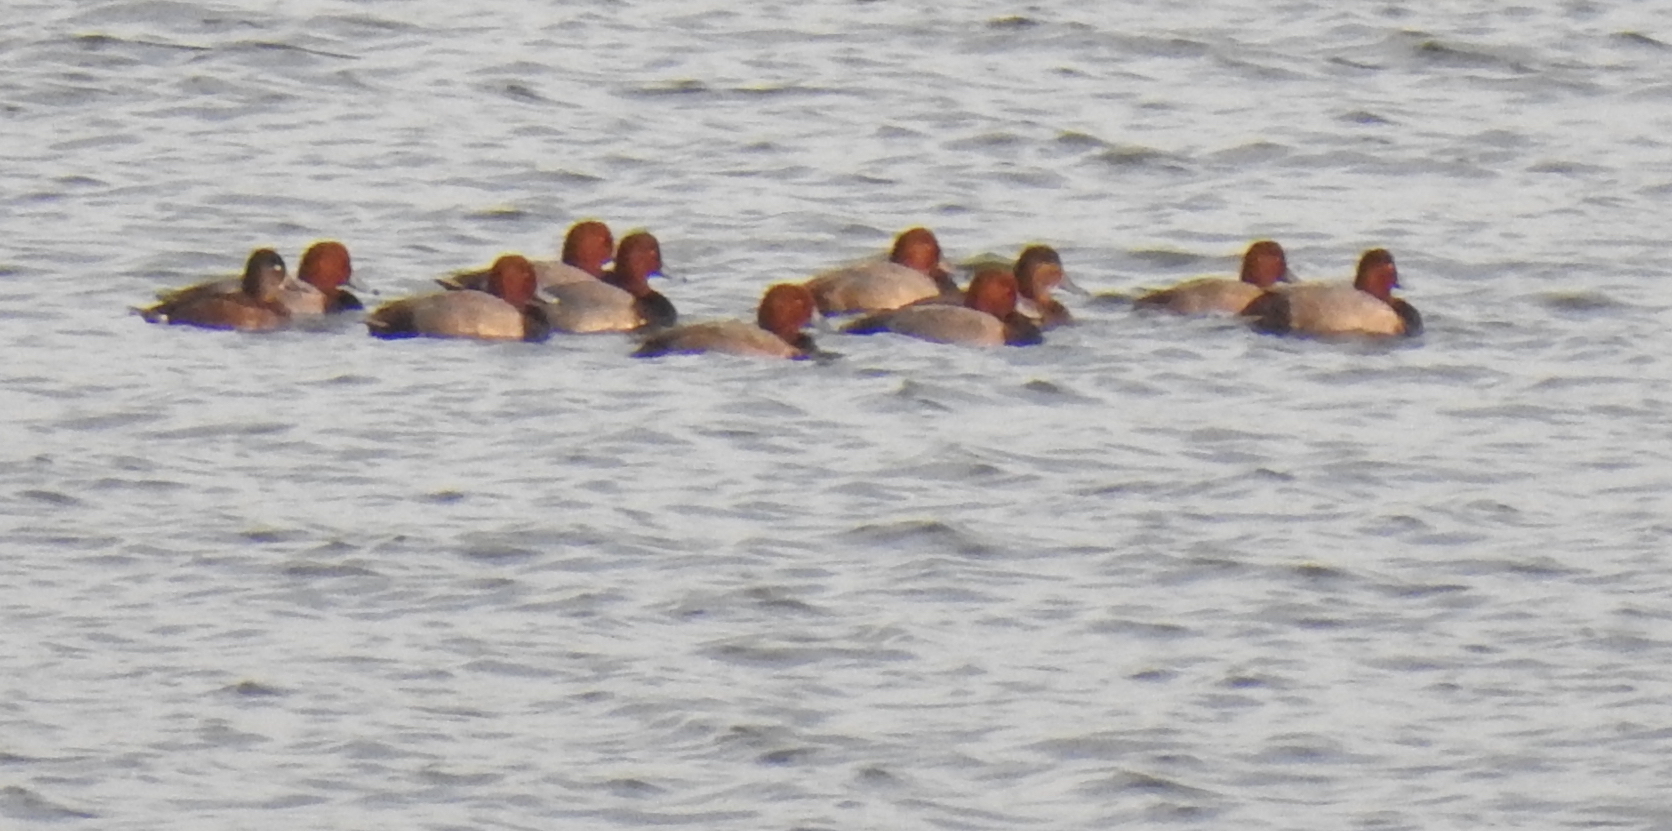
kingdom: Animalia
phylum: Chordata
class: Aves
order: Anseriformes
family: Anatidae
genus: Aythya
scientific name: Aythya americana
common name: Redhead
